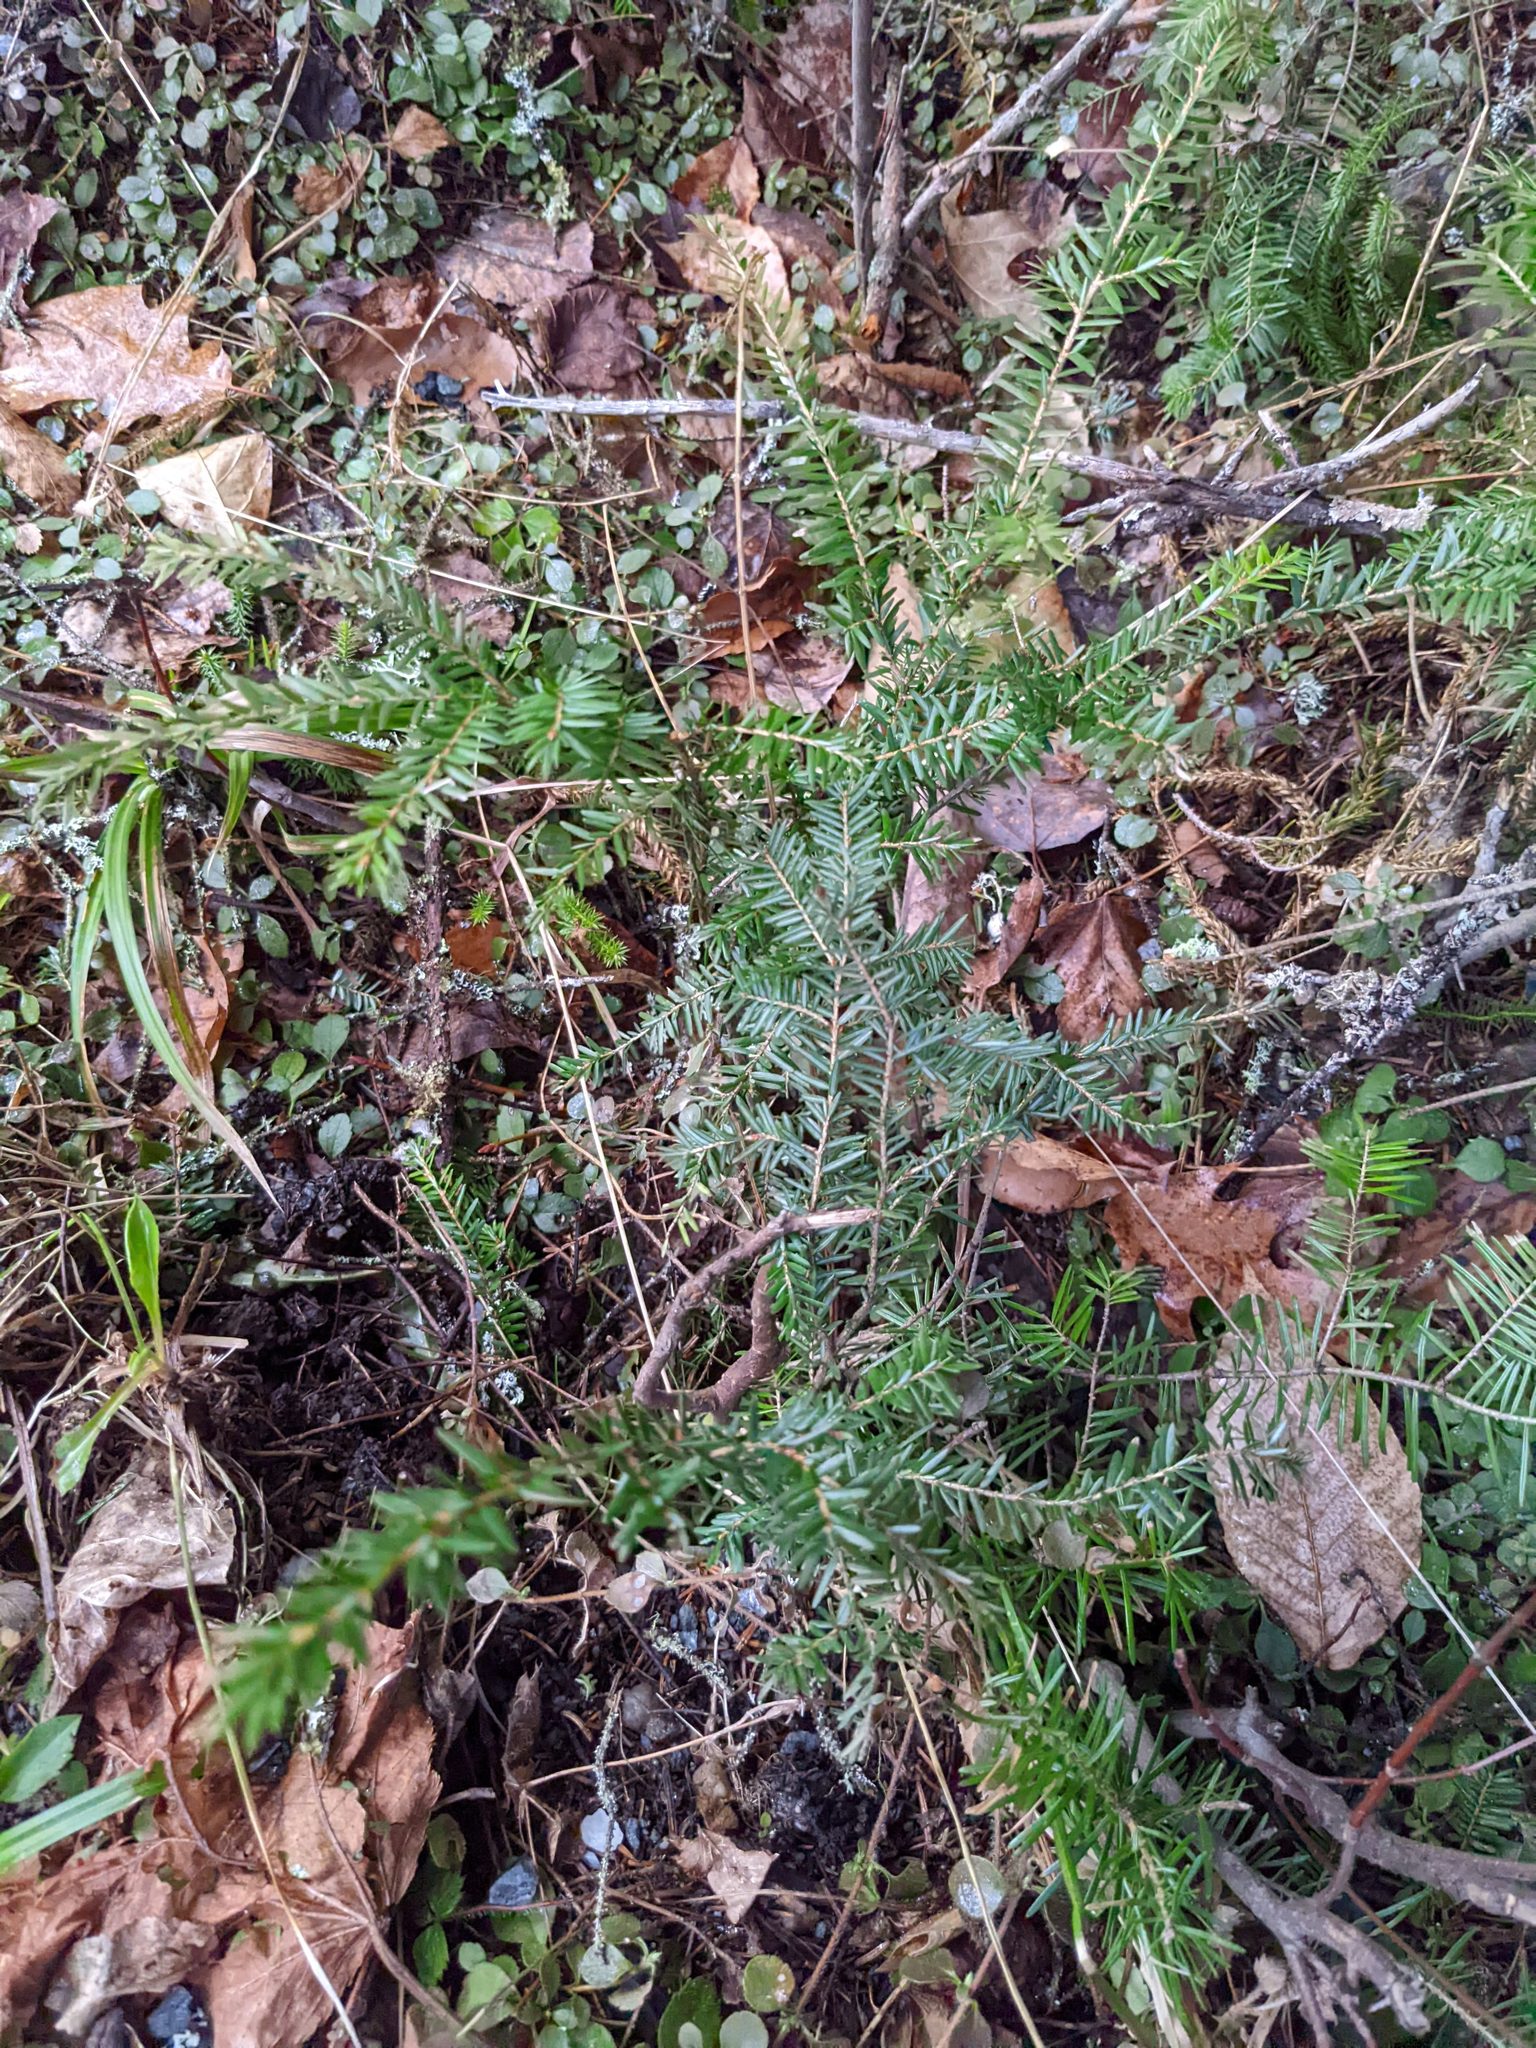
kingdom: Plantae
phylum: Tracheophyta
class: Pinopsida
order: Pinales
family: Pinaceae
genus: Tsuga
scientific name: Tsuga canadensis
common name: Eastern hemlock
